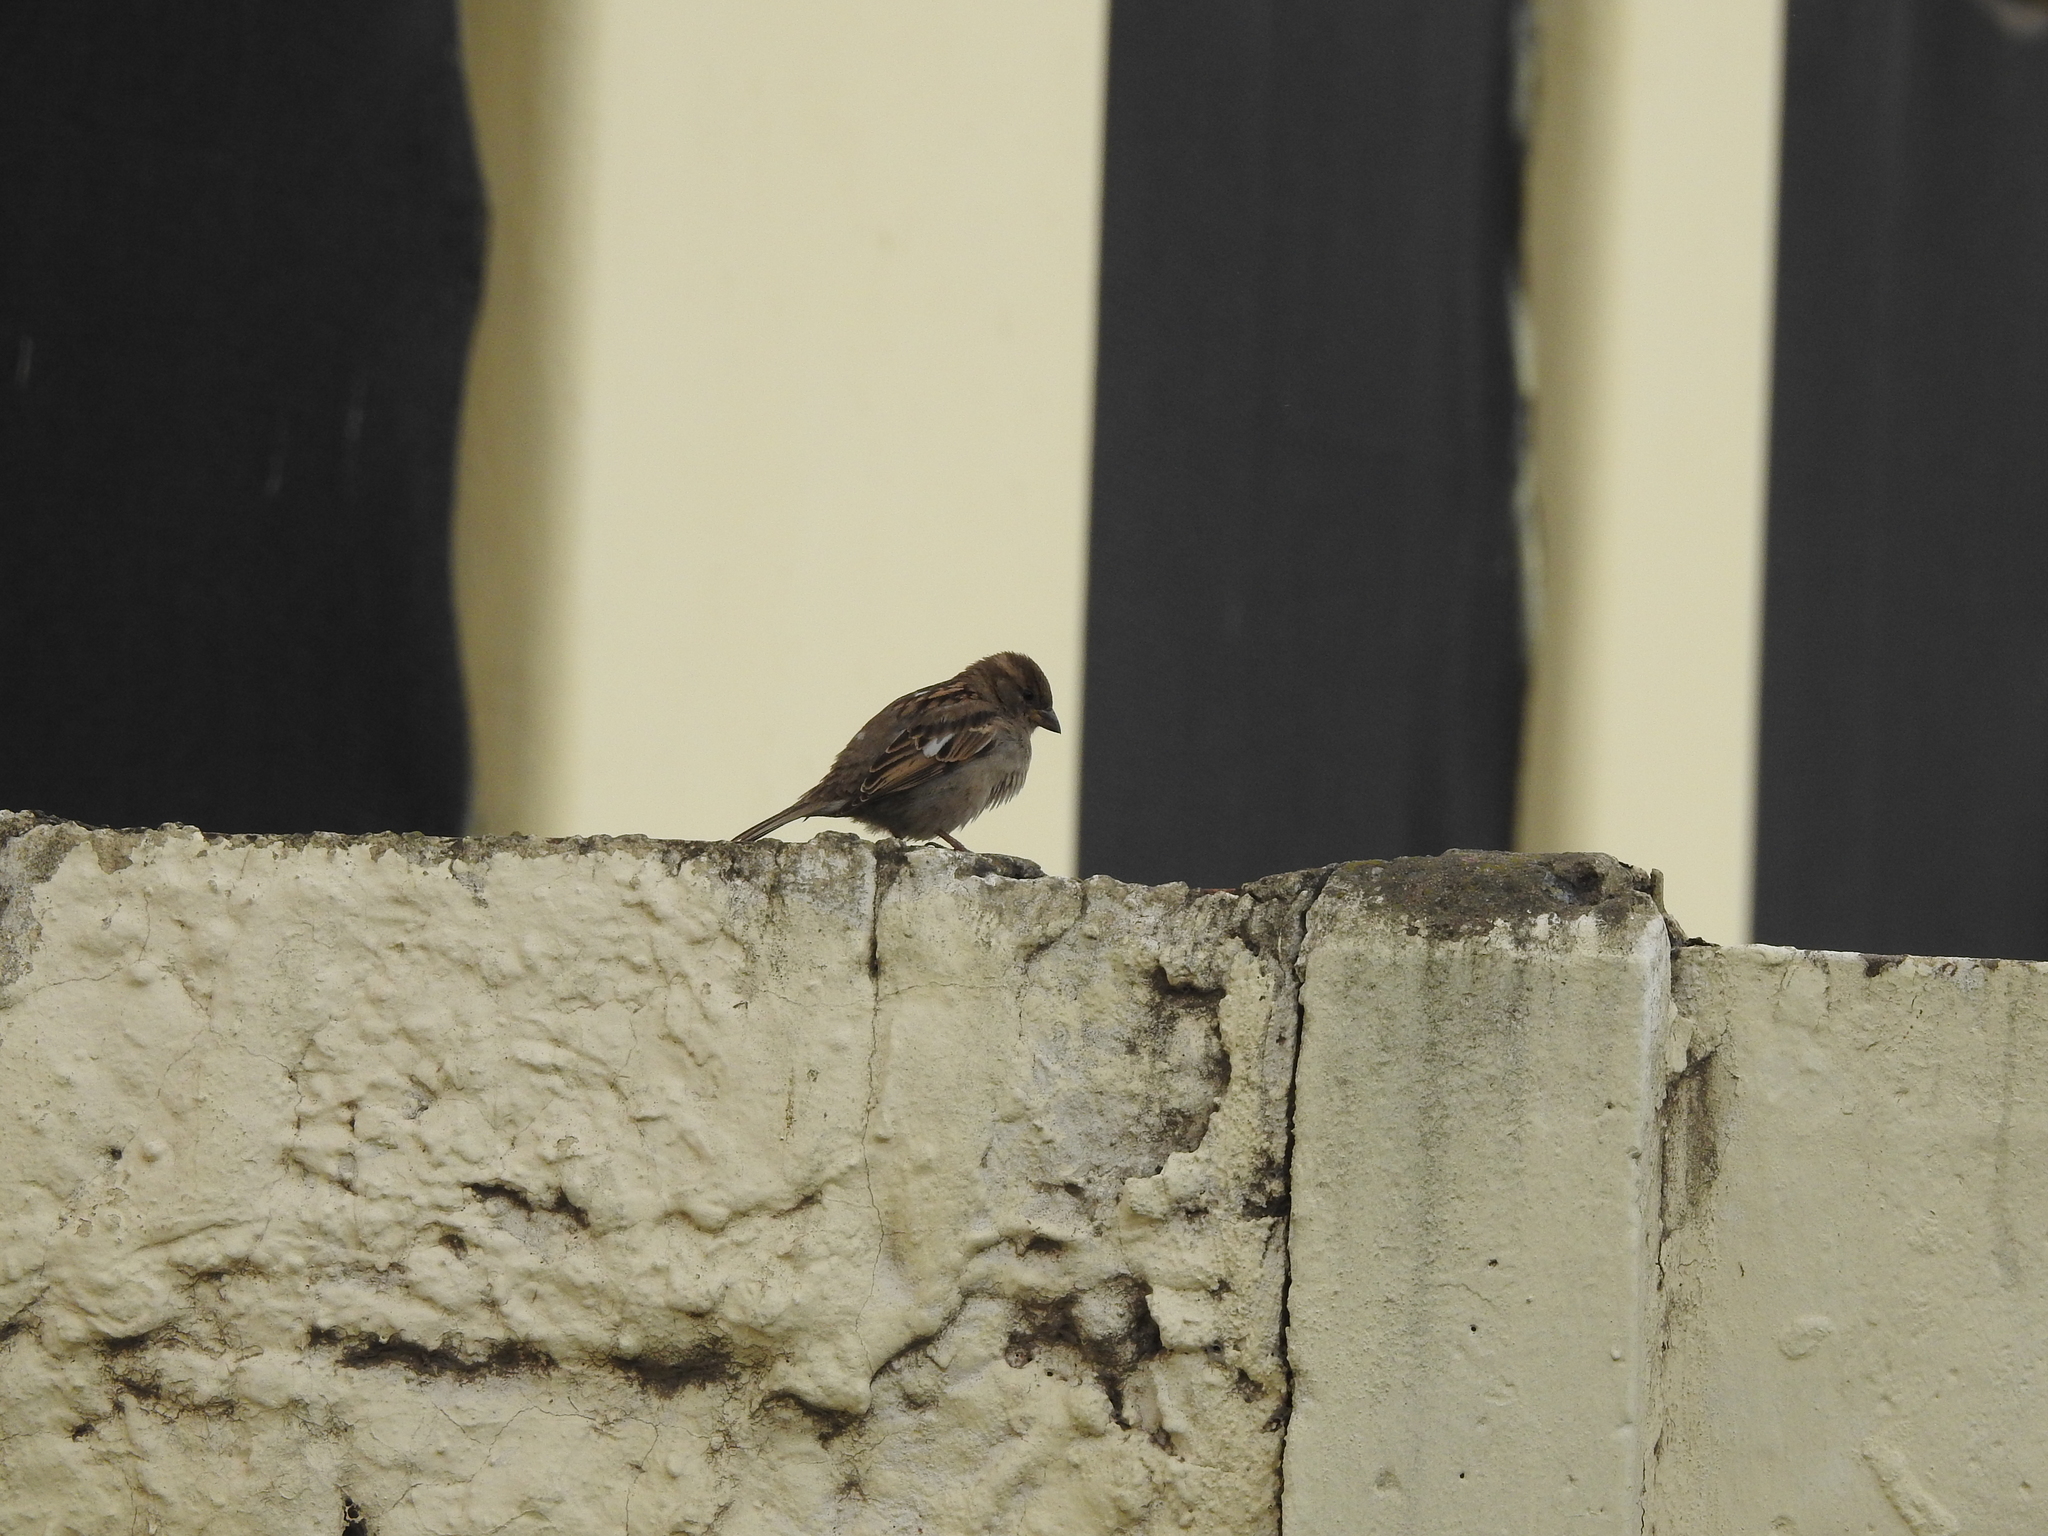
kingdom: Animalia
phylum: Chordata
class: Aves
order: Passeriformes
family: Passeridae
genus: Passer
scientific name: Passer domesticus
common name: House sparrow
